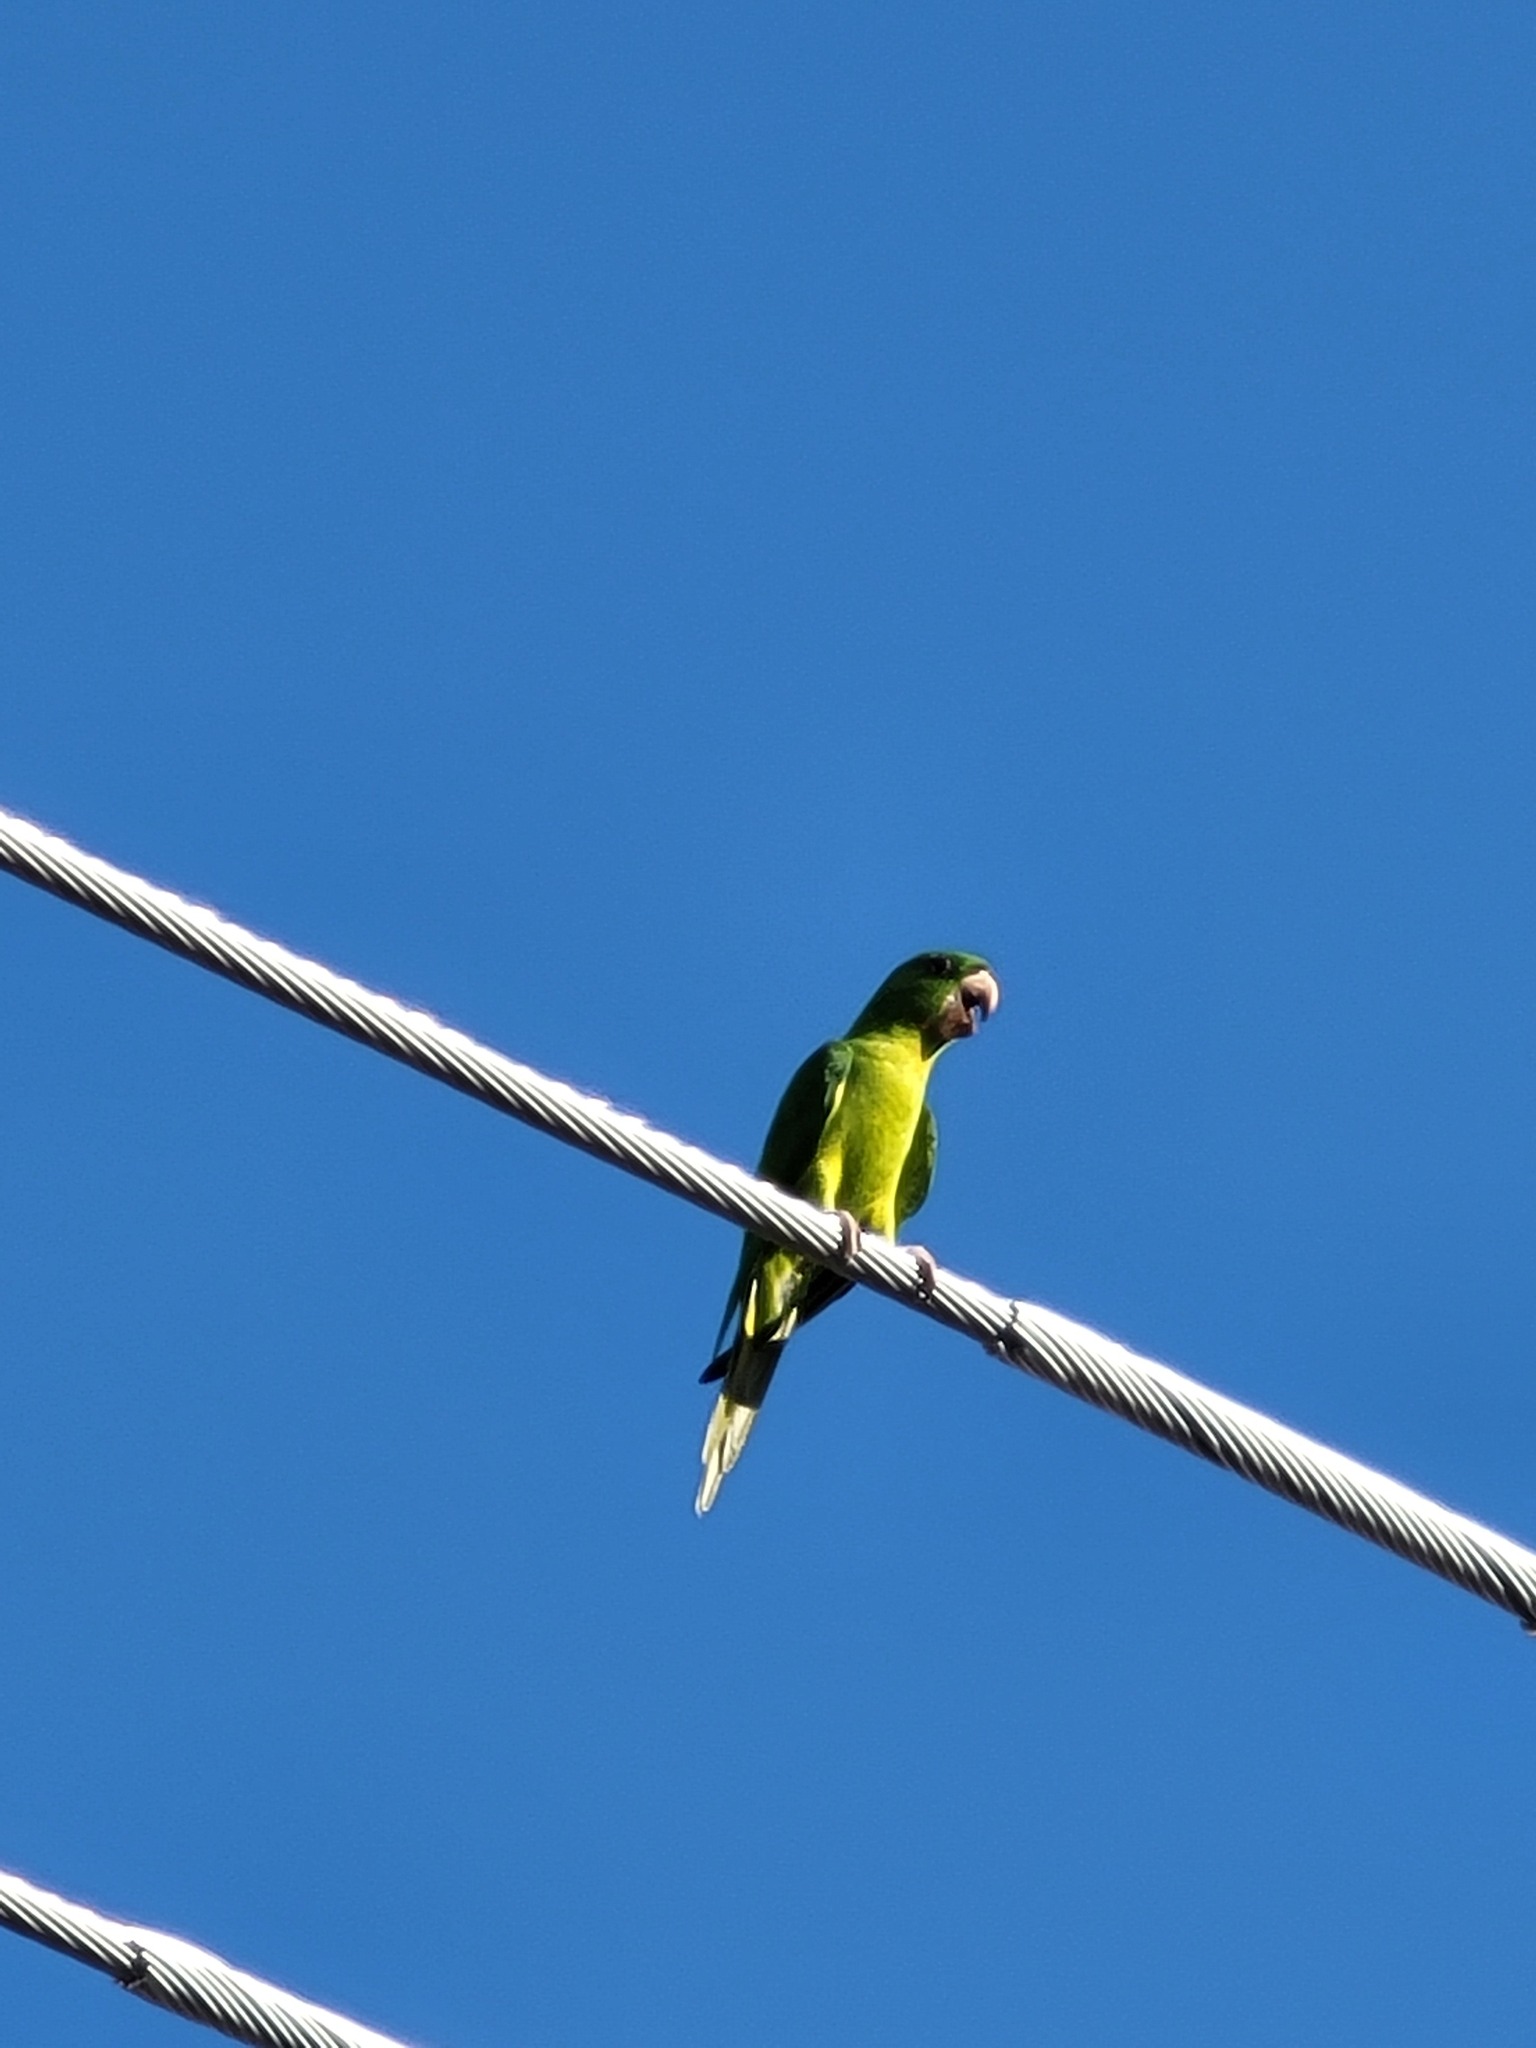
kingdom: Animalia
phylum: Chordata
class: Aves
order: Psittaciformes
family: Psittacidae
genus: Aratinga
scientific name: Aratinga holochlora
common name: Green parakeet
